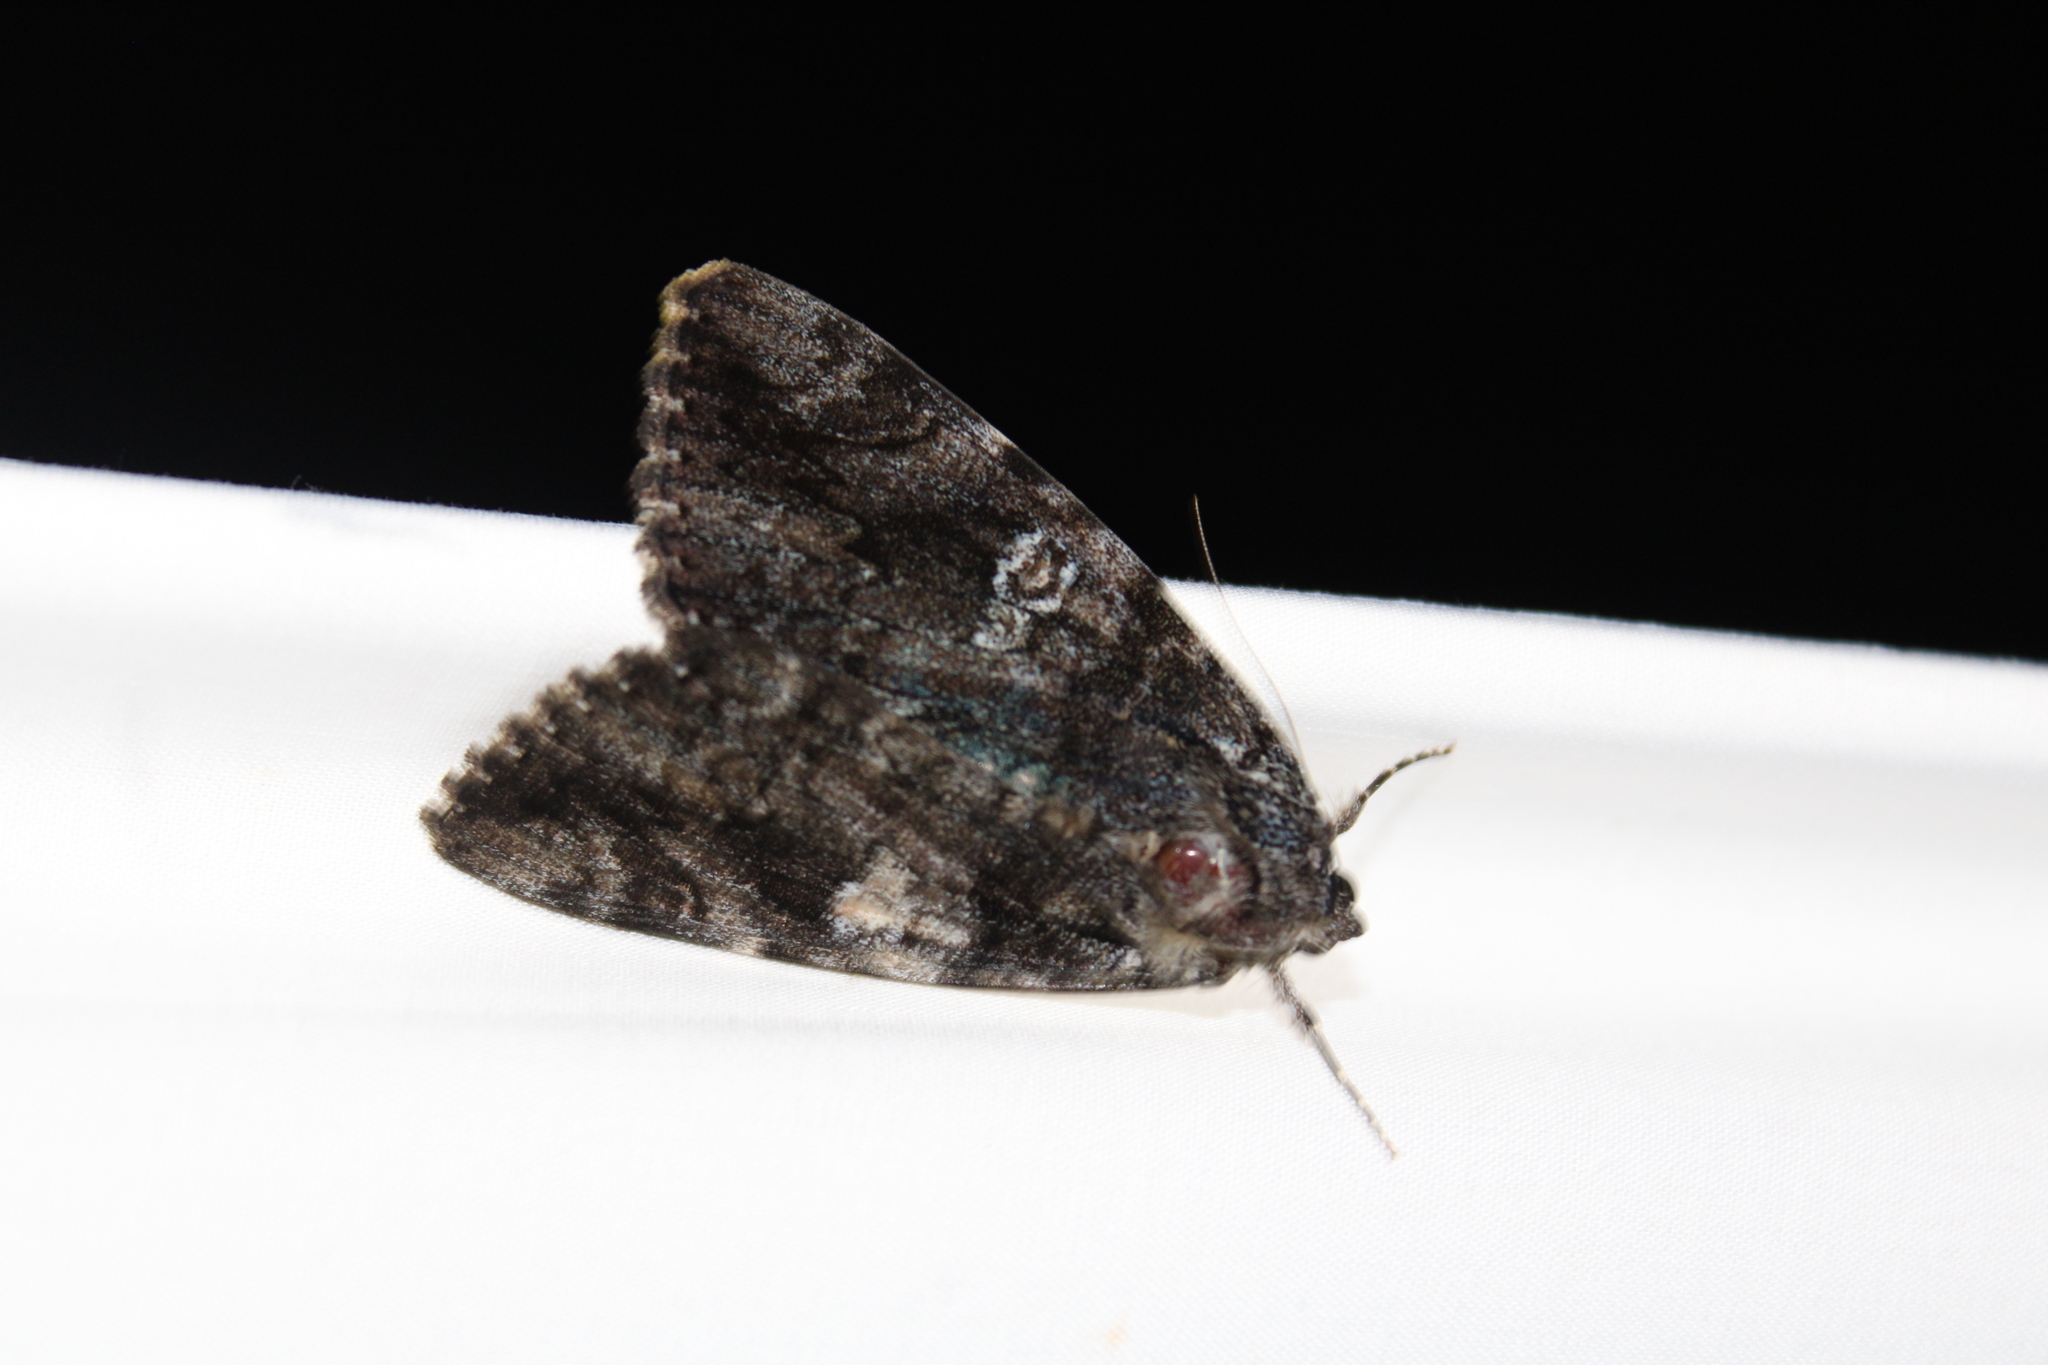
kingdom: Animalia
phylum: Arthropoda
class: Insecta
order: Lepidoptera
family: Erebidae
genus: Catocala
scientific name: Catocala ilia
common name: Ilia underwing
